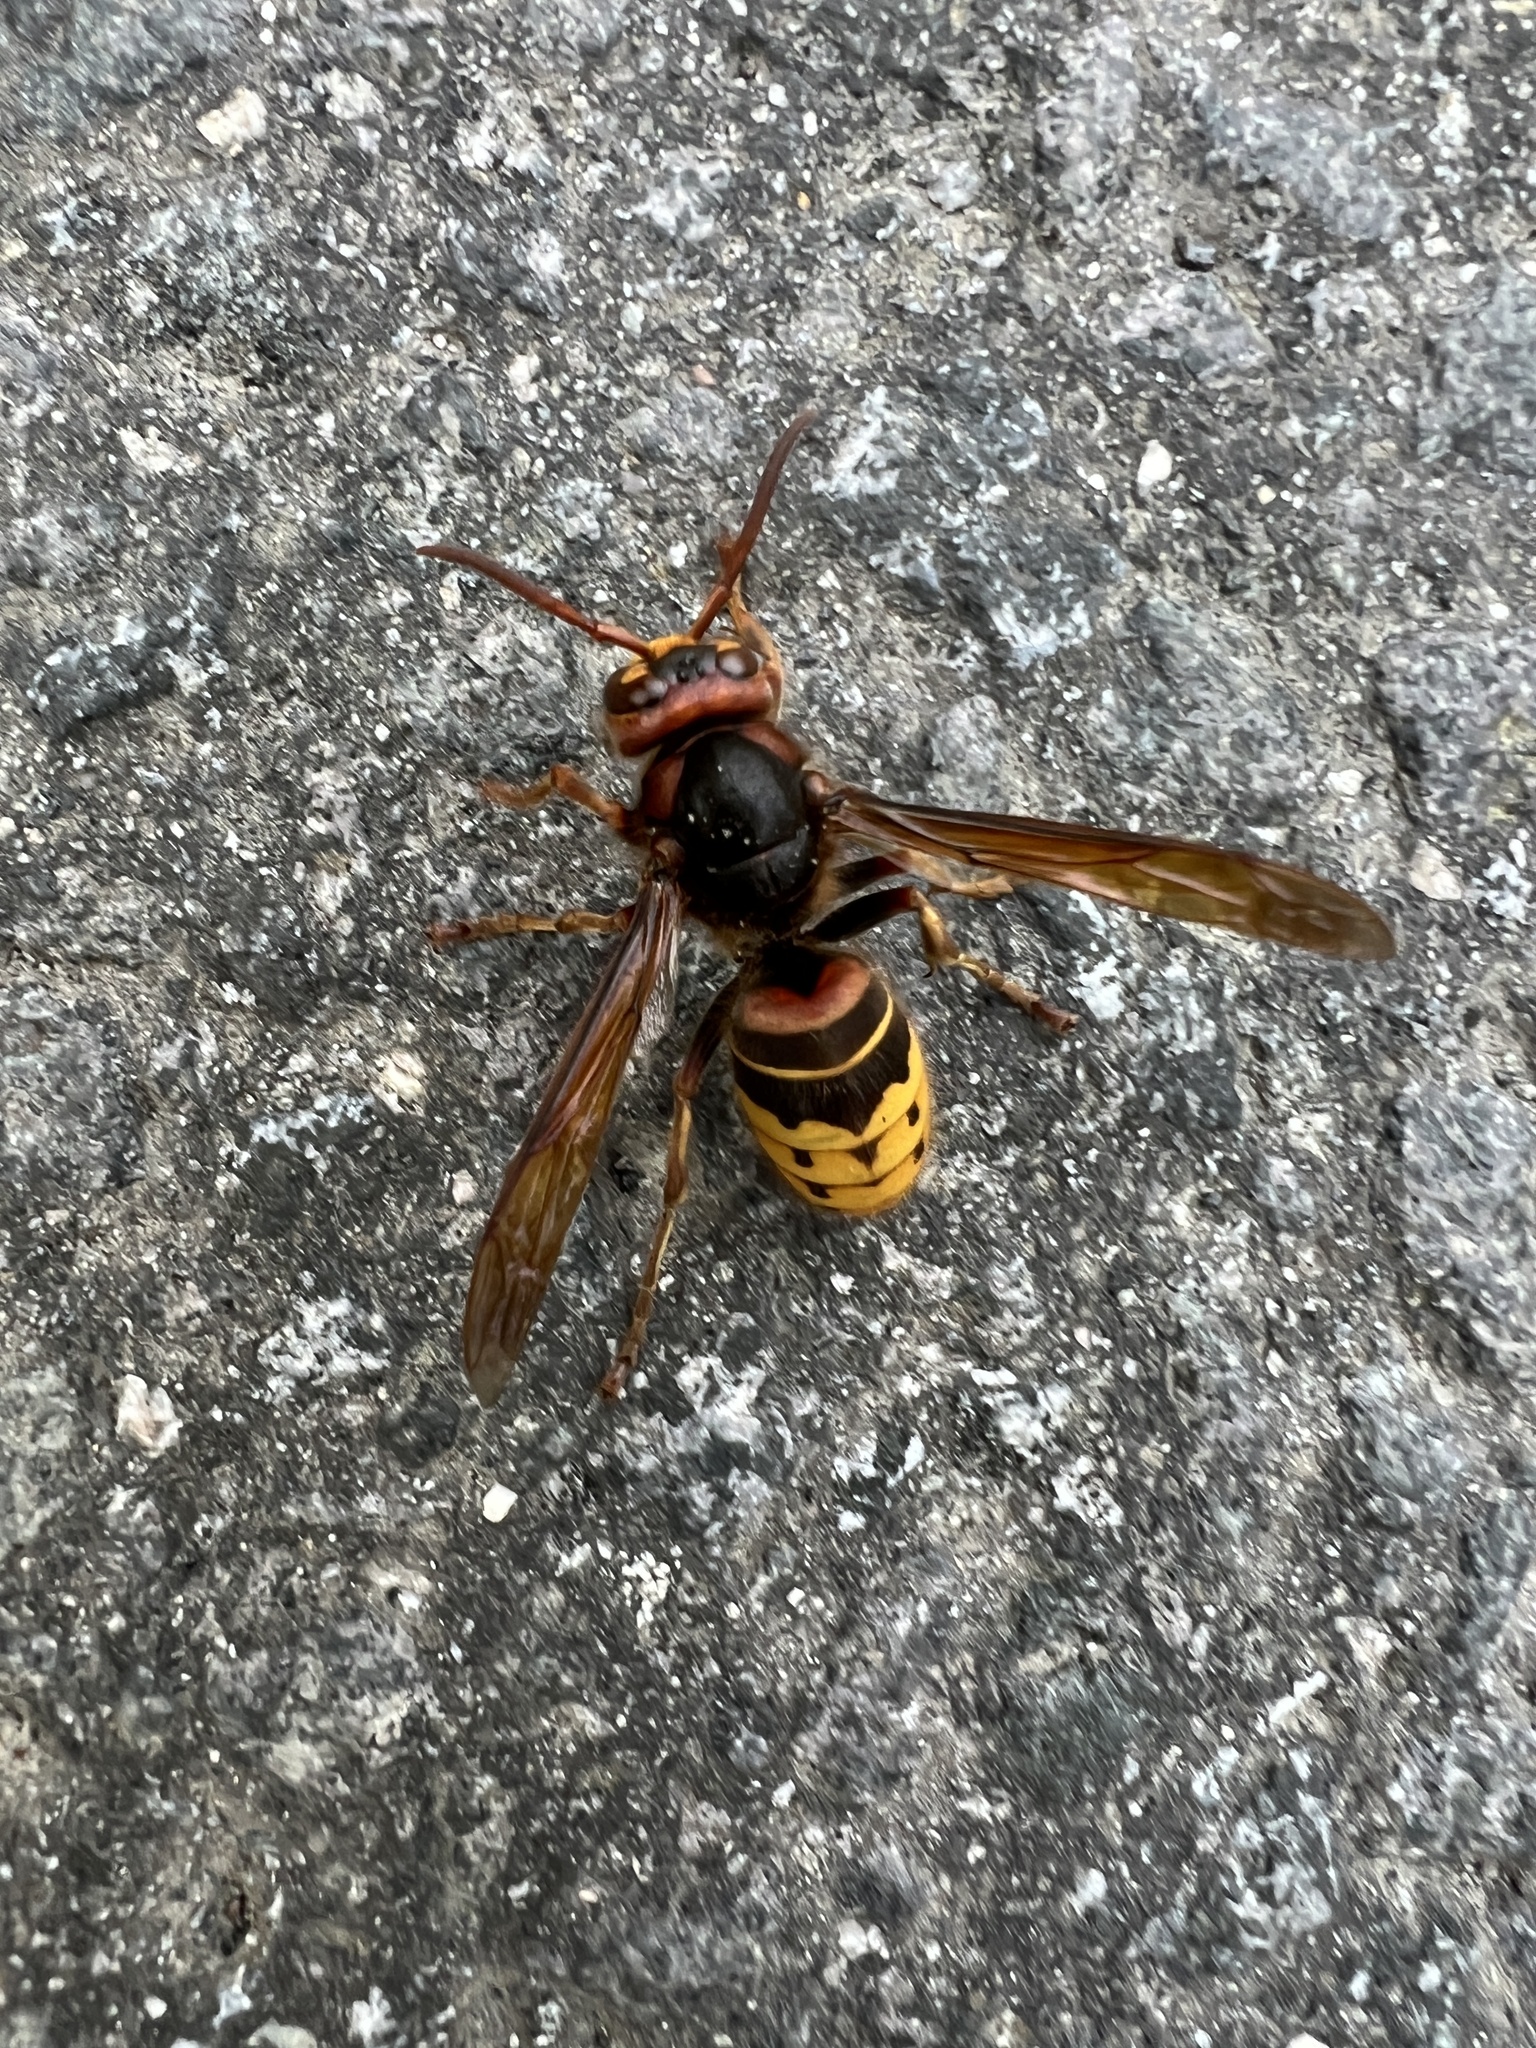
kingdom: Animalia
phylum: Arthropoda
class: Insecta
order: Hymenoptera
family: Vespidae
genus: Vespa
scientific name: Vespa crabro
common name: Hornet
